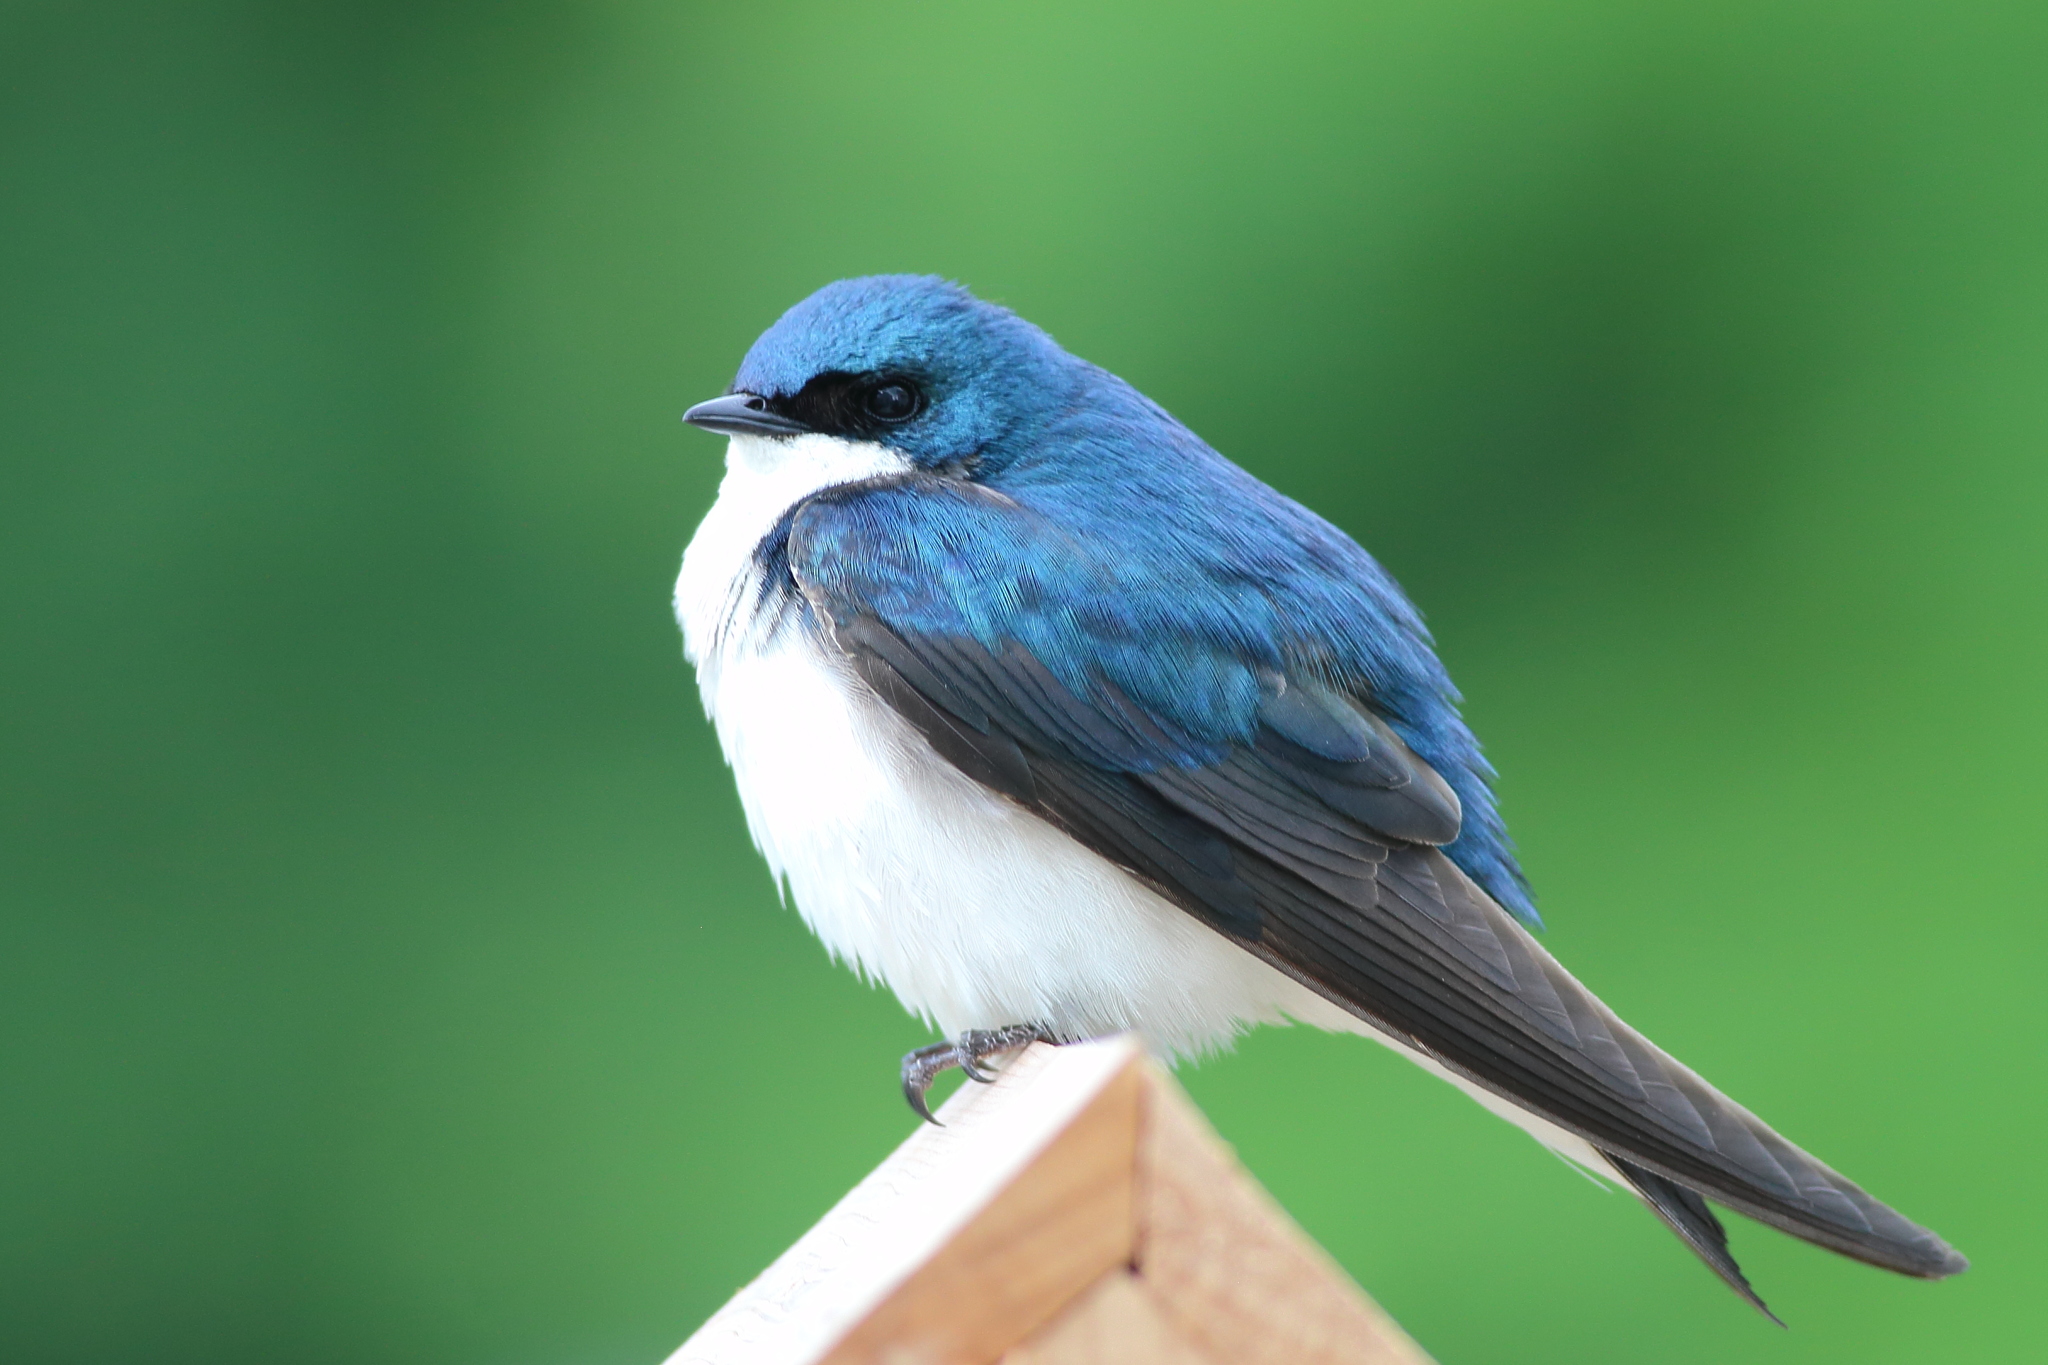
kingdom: Animalia
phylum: Chordata
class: Aves
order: Passeriformes
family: Hirundinidae
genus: Tachycineta
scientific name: Tachycineta bicolor
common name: Tree swallow
